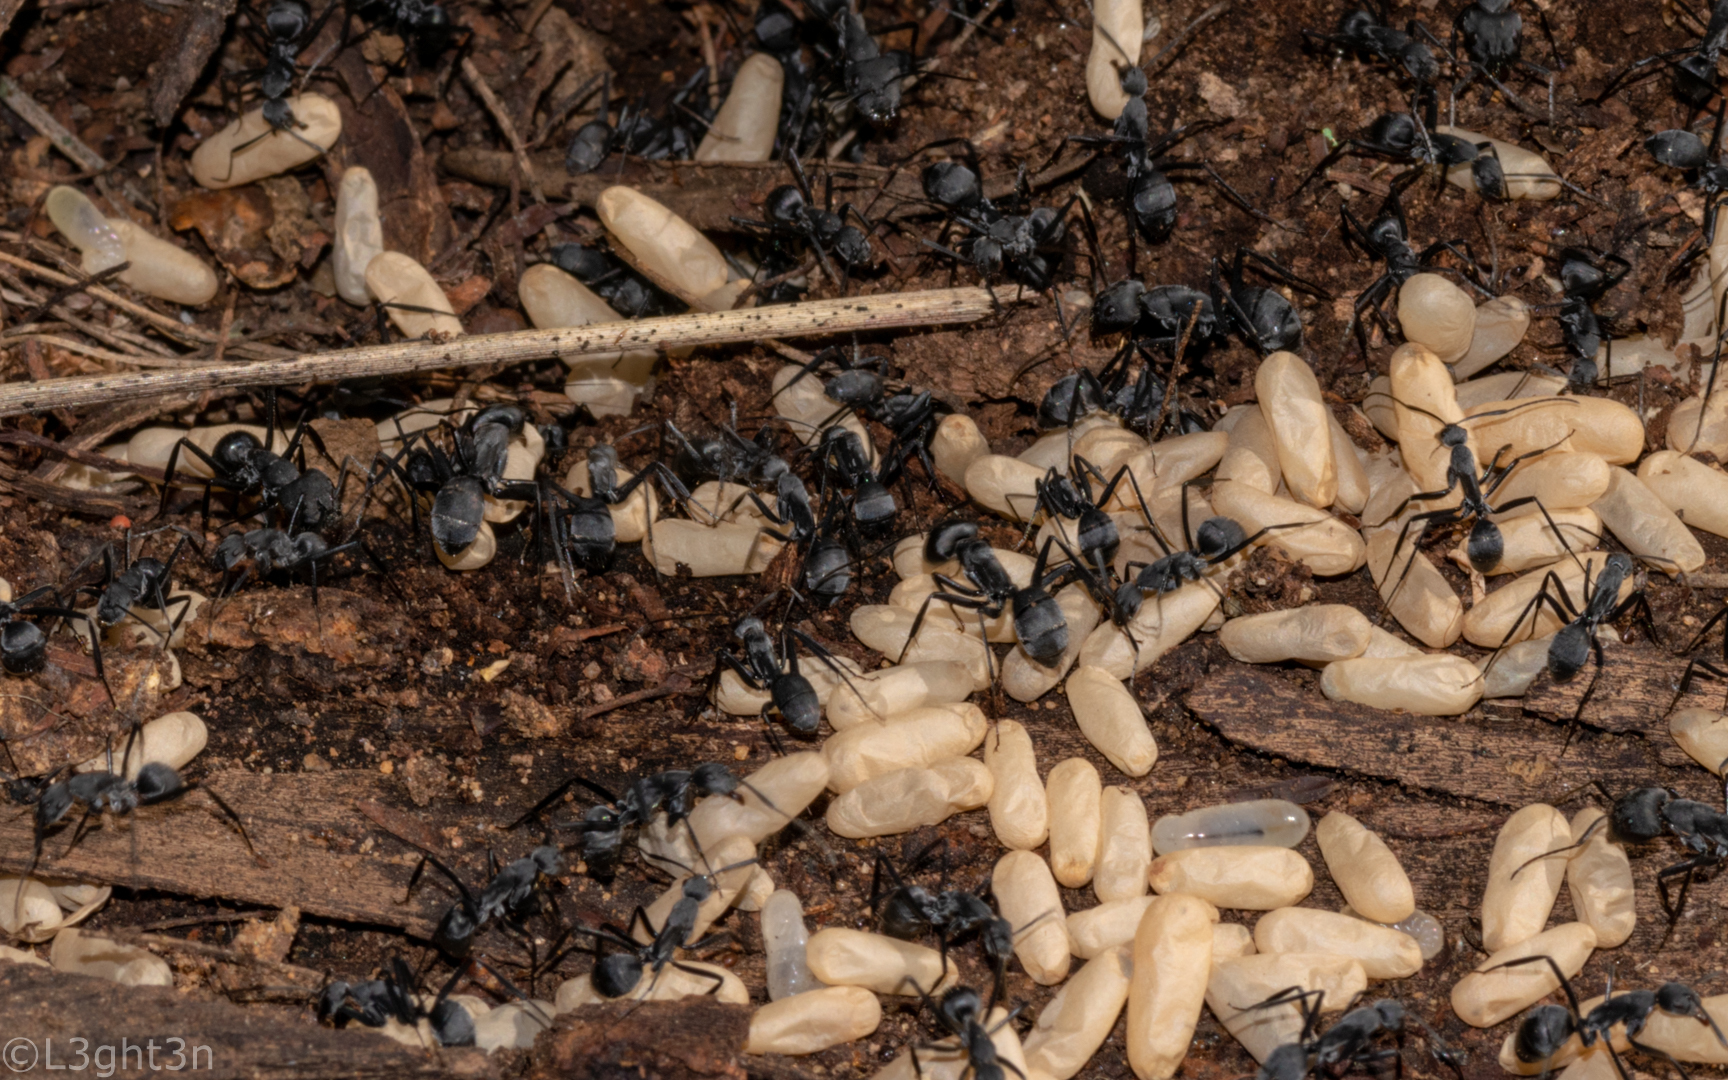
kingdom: Animalia
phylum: Arthropoda
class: Insecta
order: Hymenoptera
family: Formicidae
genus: Camponotus
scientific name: Camponotus eugeniae
